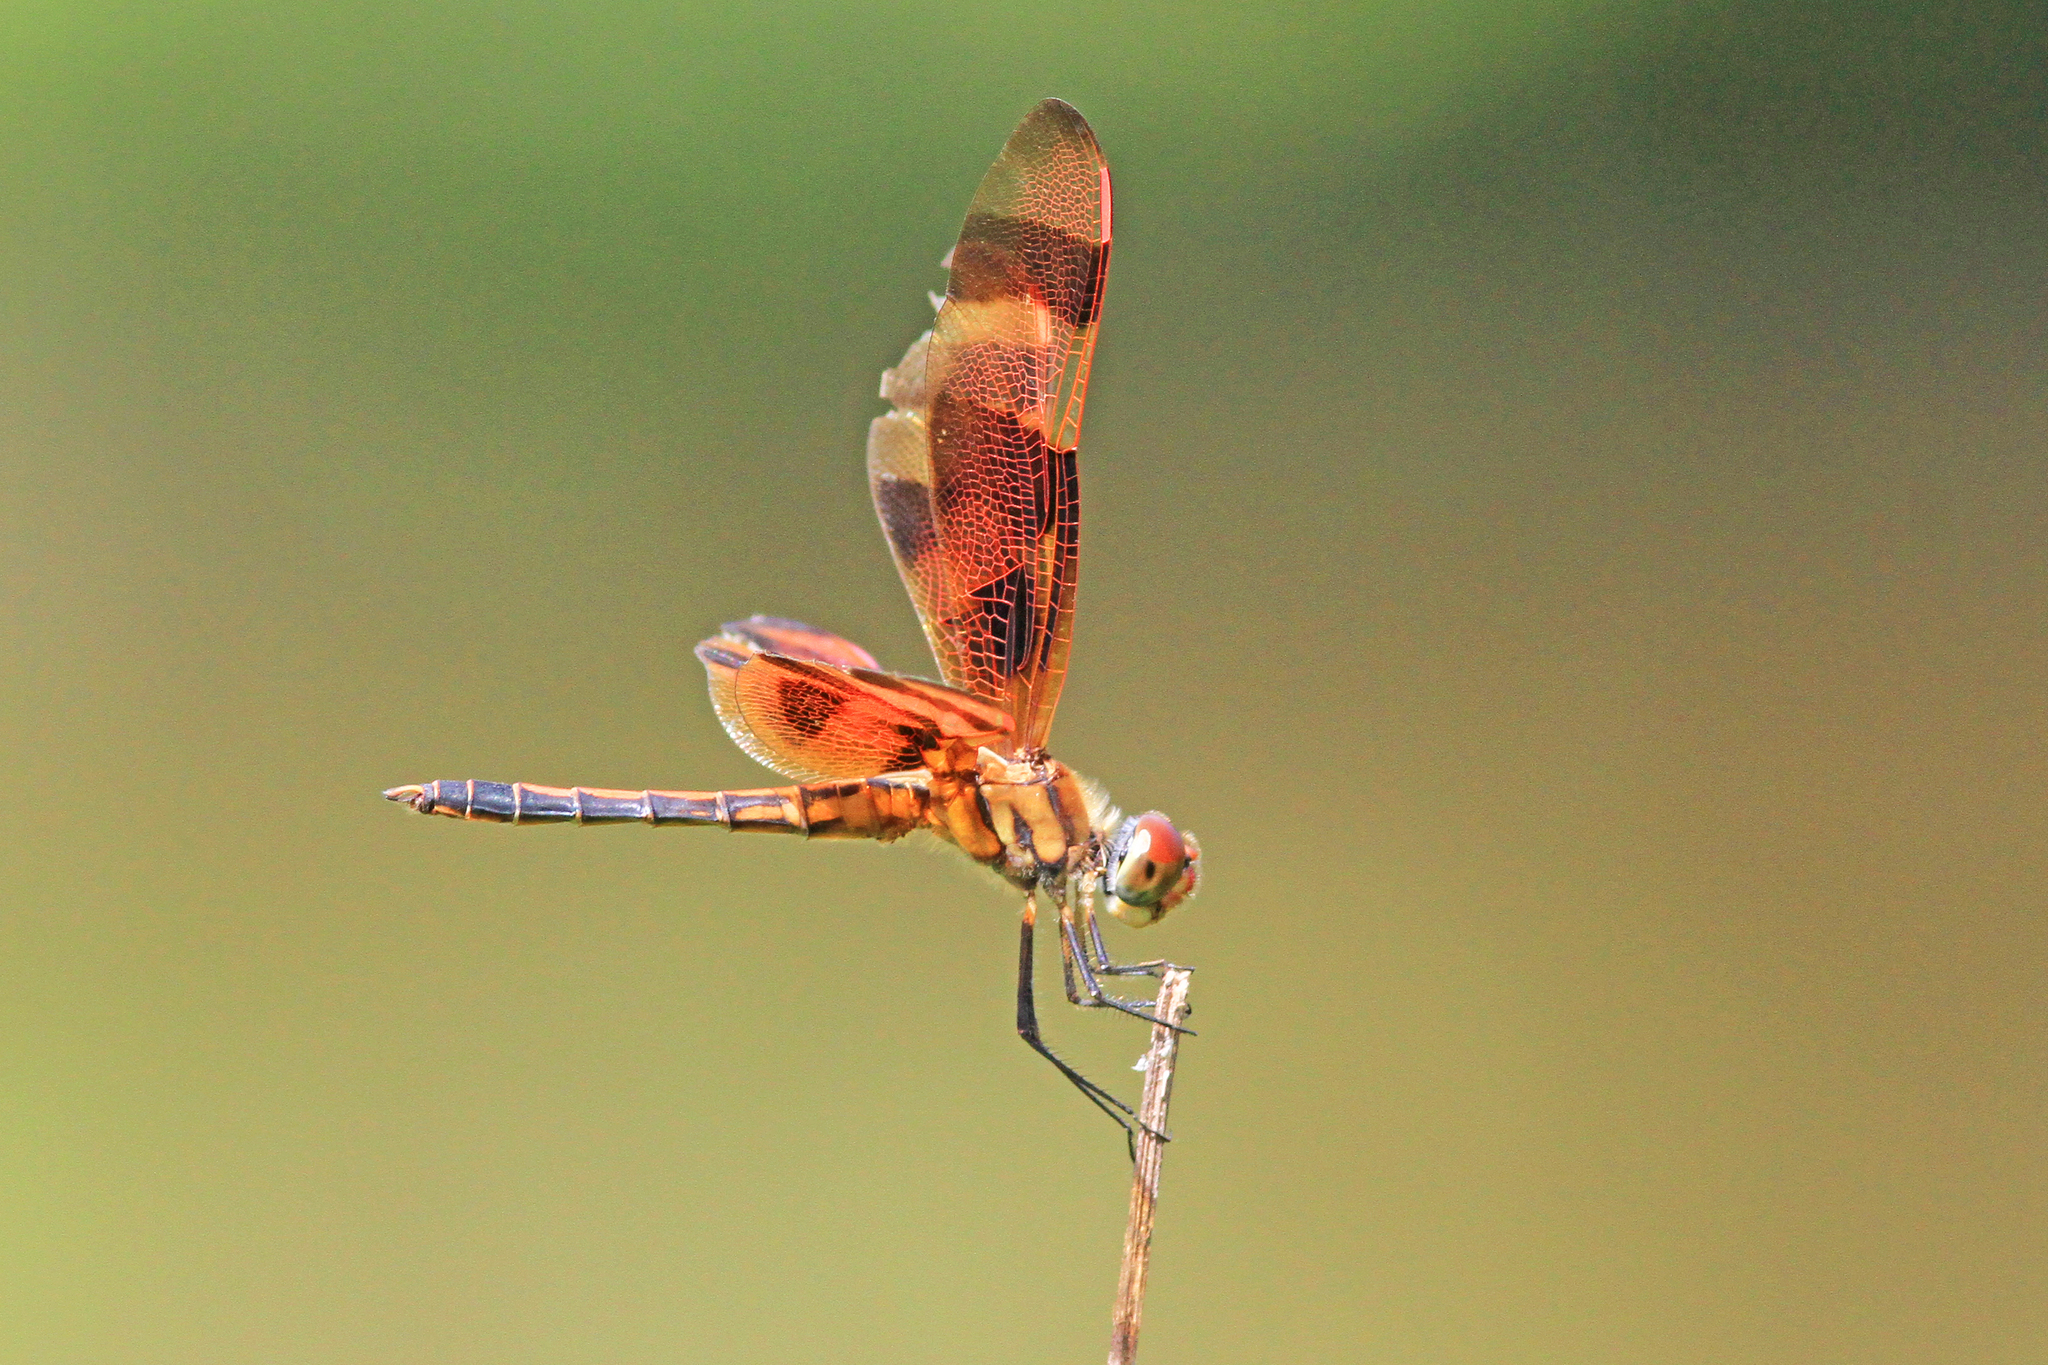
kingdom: Animalia
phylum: Arthropoda
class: Insecta
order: Odonata
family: Libellulidae
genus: Celithemis
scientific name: Celithemis eponina
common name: Halloween pennant
